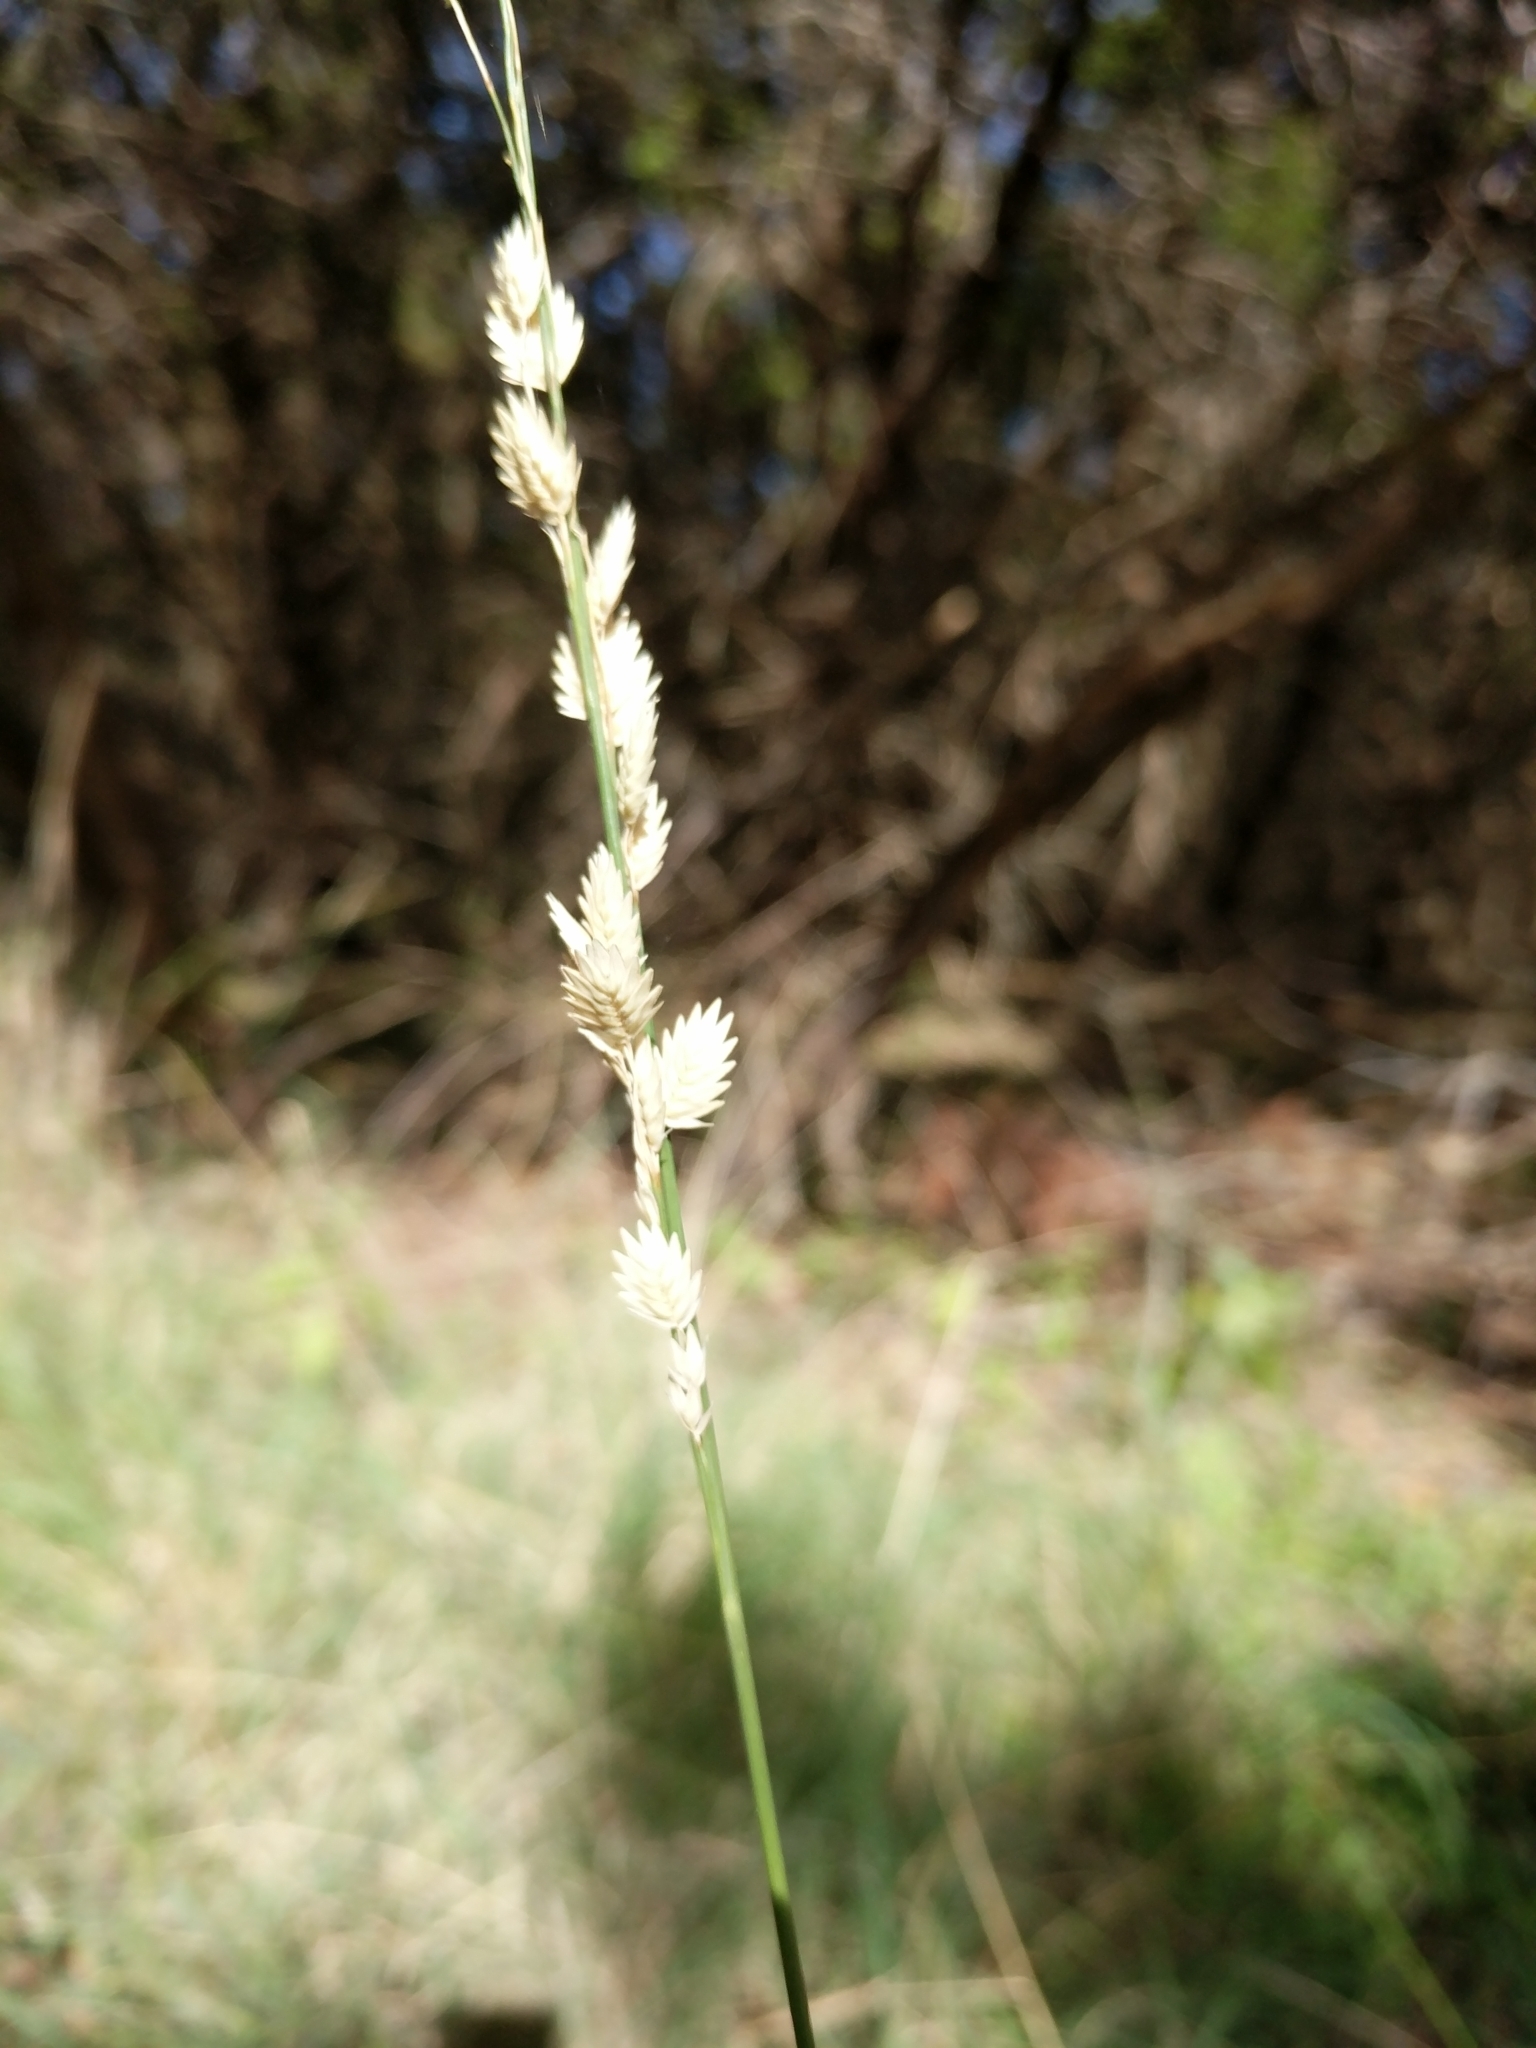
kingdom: Plantae
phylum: Tracheophyta
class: Liliopsida
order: Poales
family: Poaceae
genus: Eragrostis
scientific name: Eragrostis superba
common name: Wilman lovegrass
